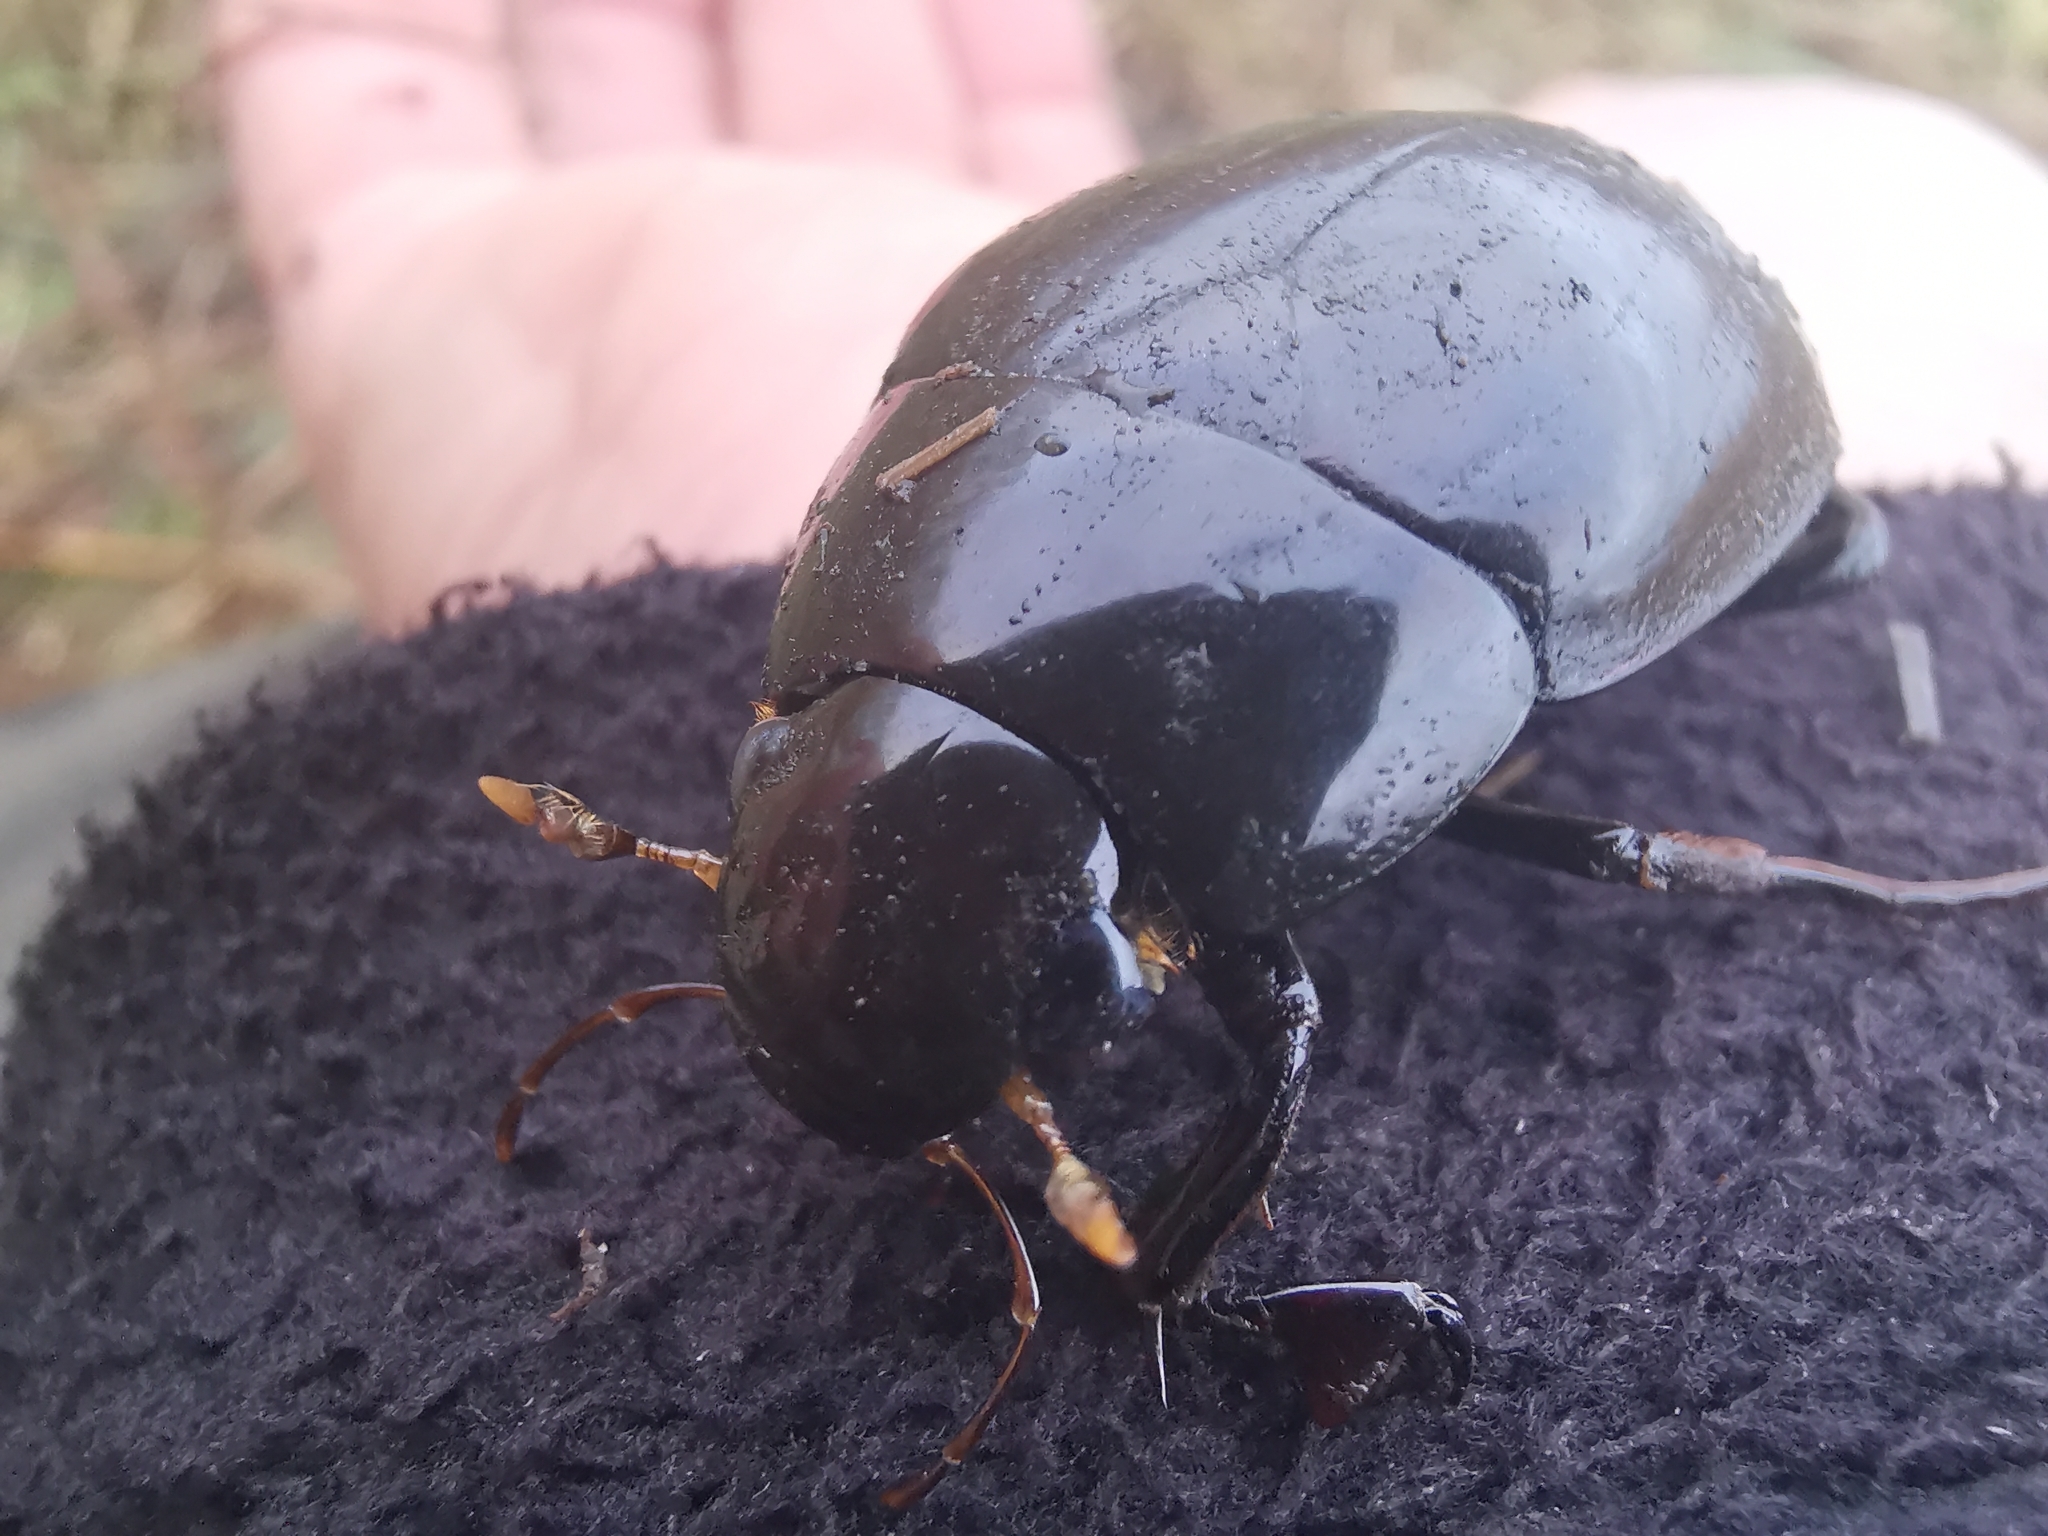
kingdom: Animalia
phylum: Arthropoda
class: Insecta
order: Coleoptera
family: Hydrophilidae
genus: Hydrophilus
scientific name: Hydrophilus piceus
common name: Great silver water beetle
